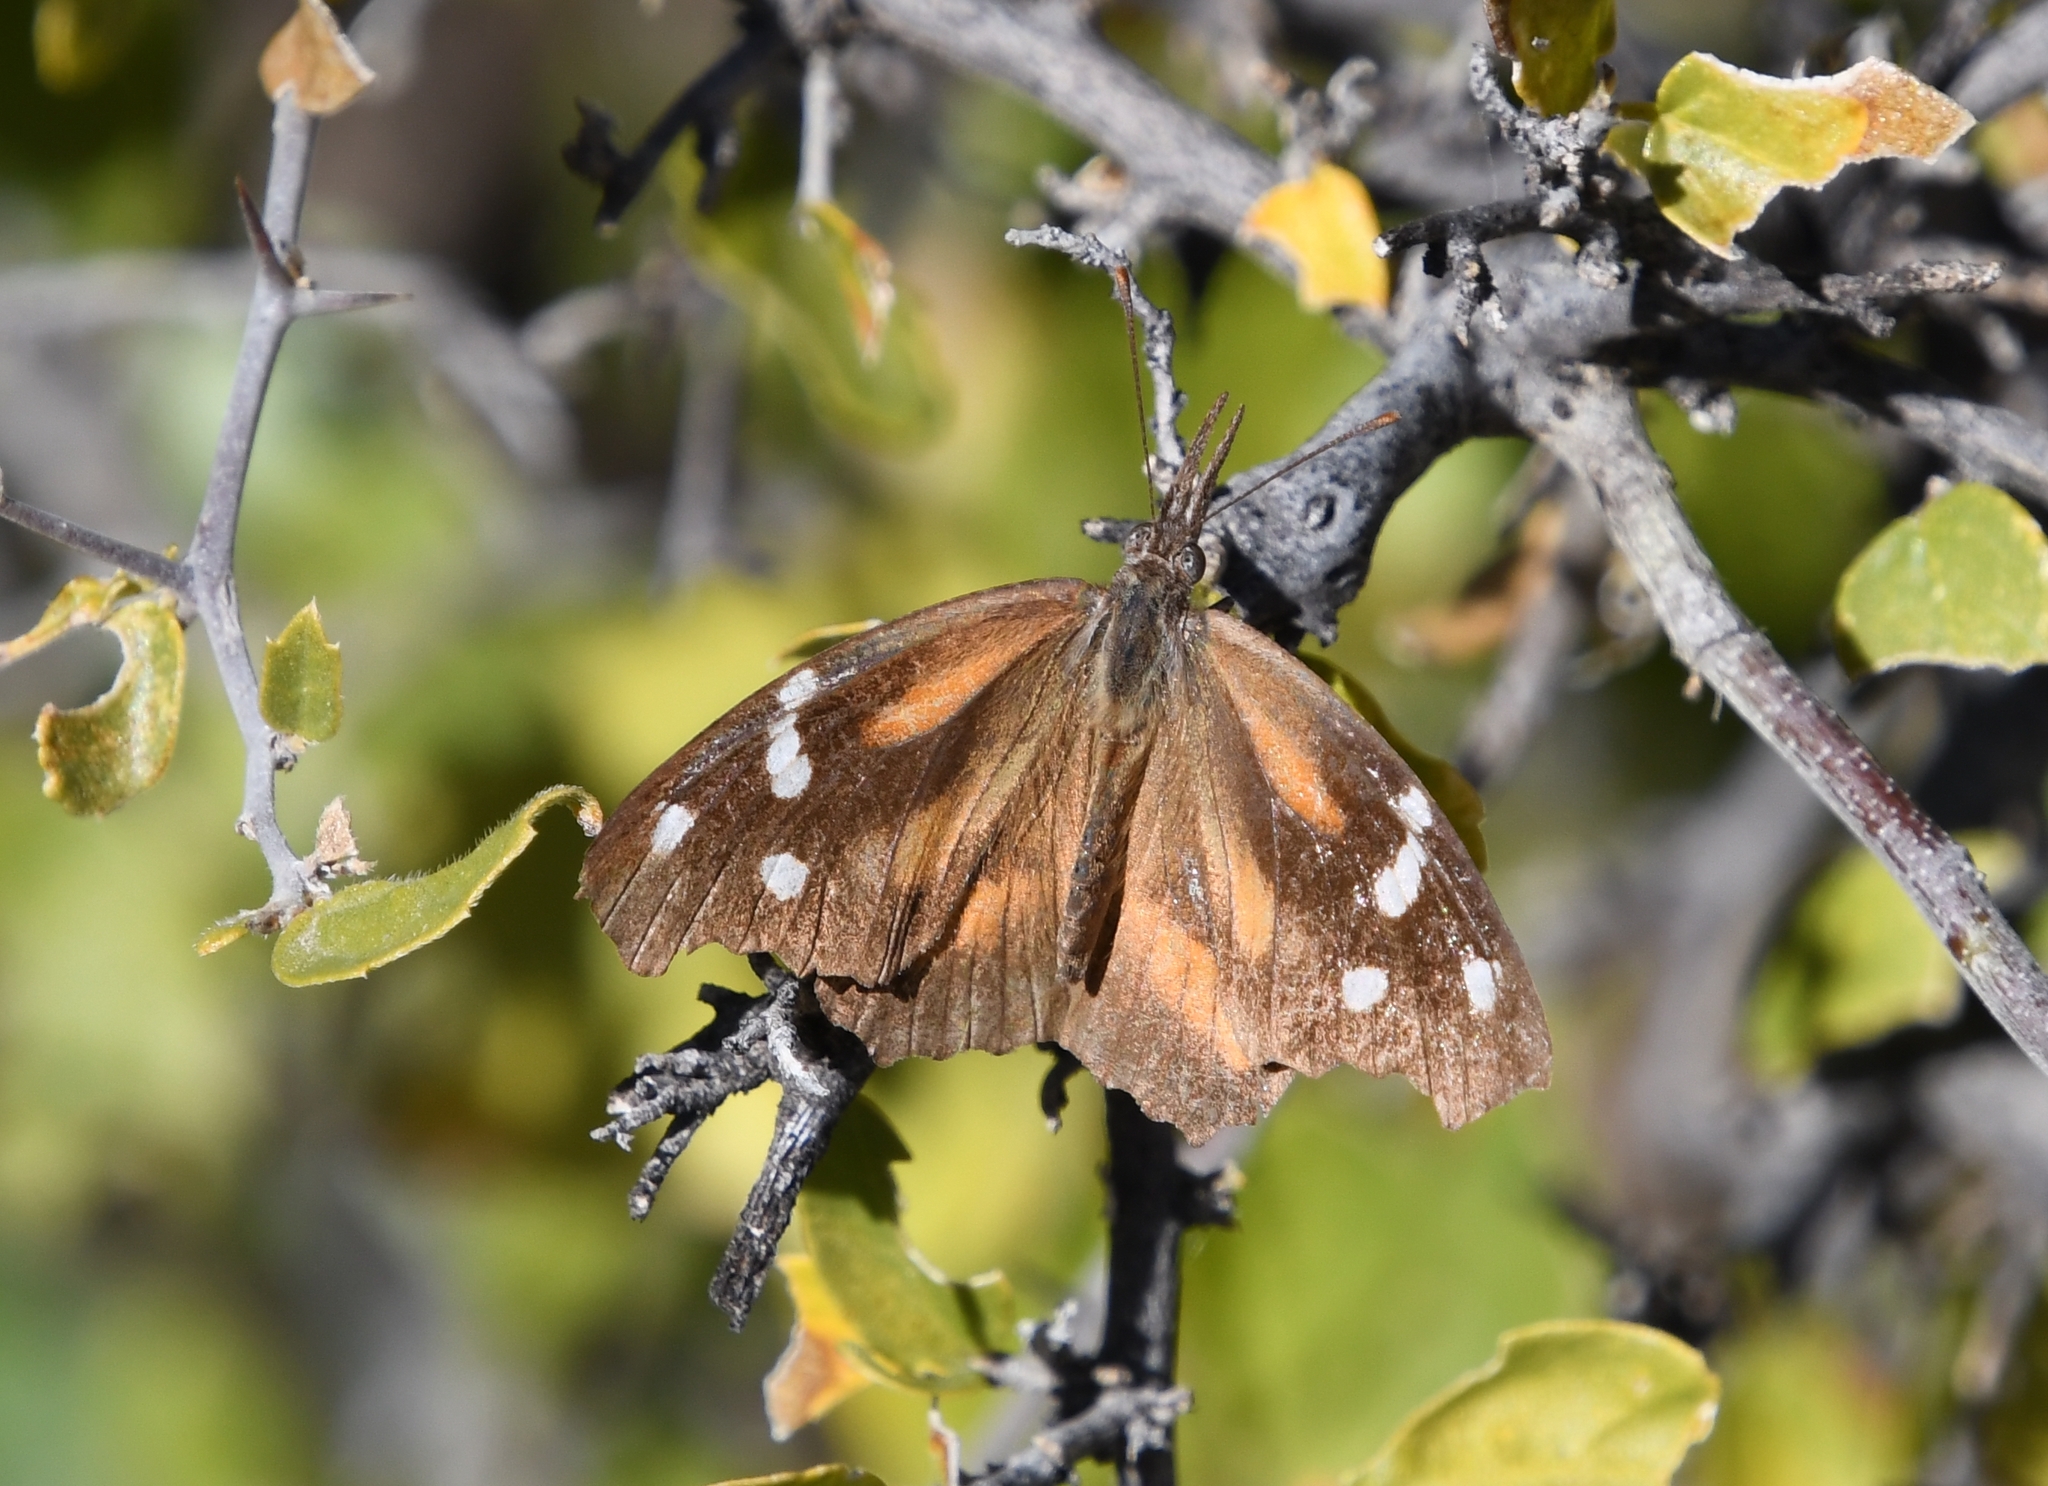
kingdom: Animalia
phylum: Arthropoda
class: Insecta
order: Lepidoptera
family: Nymphalidae
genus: Libytheana
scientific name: Libytheana carinenta
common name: American snout
